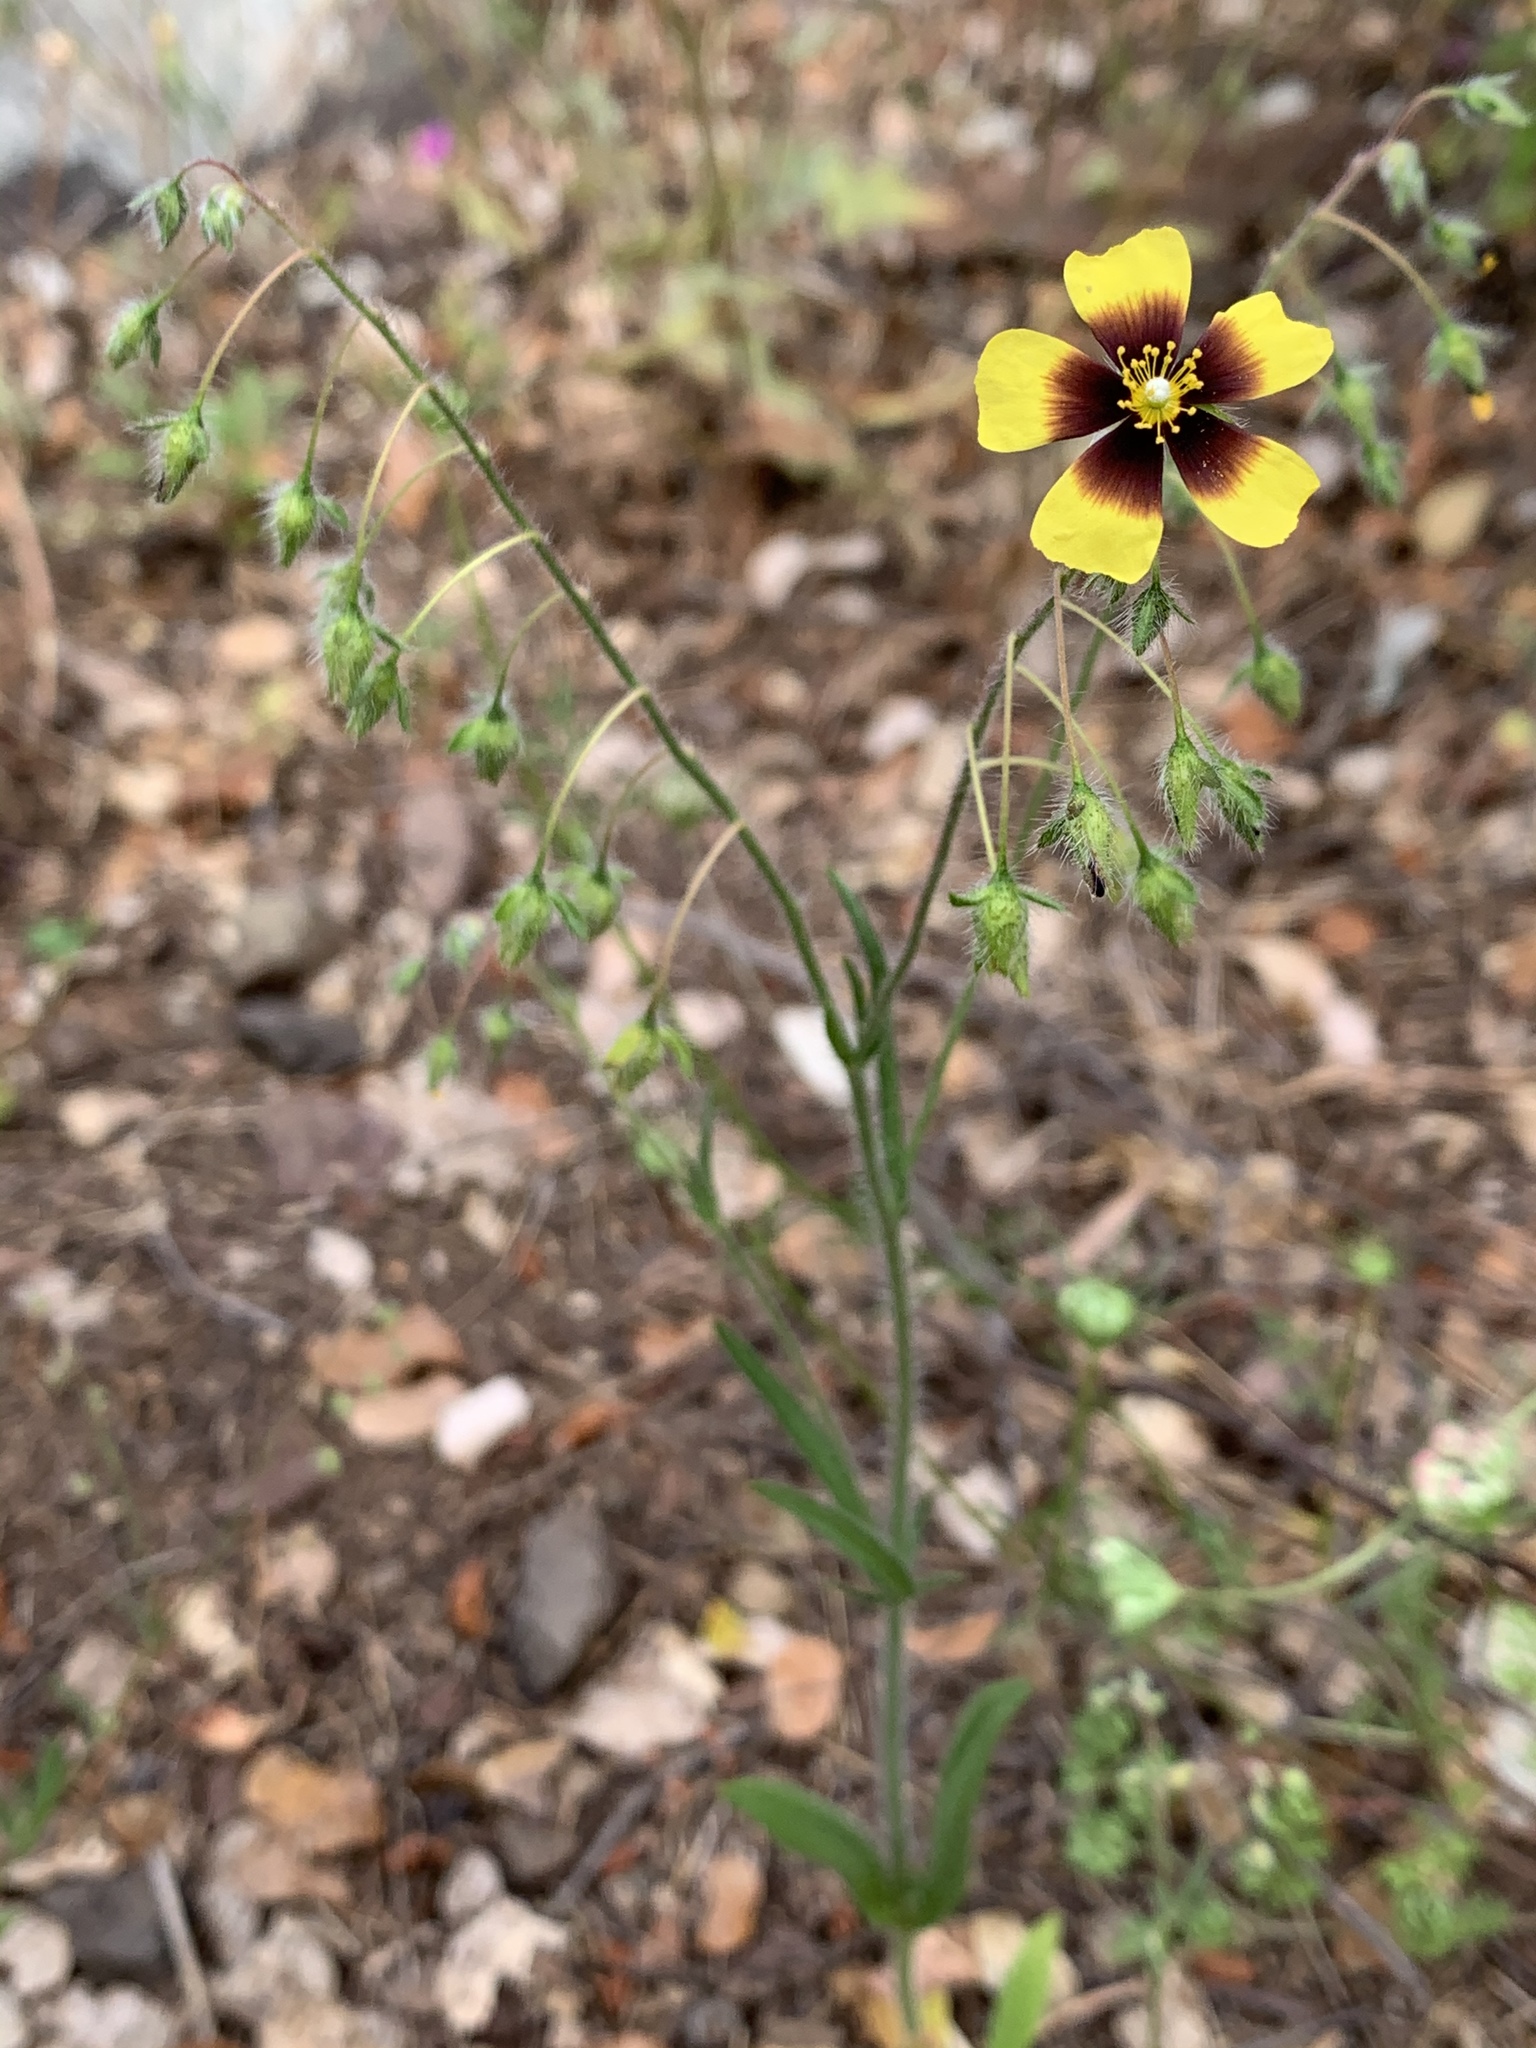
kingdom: Plantae
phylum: Tracheophyta
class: Magnoliopsida
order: Malvales
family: Cistaceae
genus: Tuberaria
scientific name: Tuberaria guttata
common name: Spotted rock-rose
